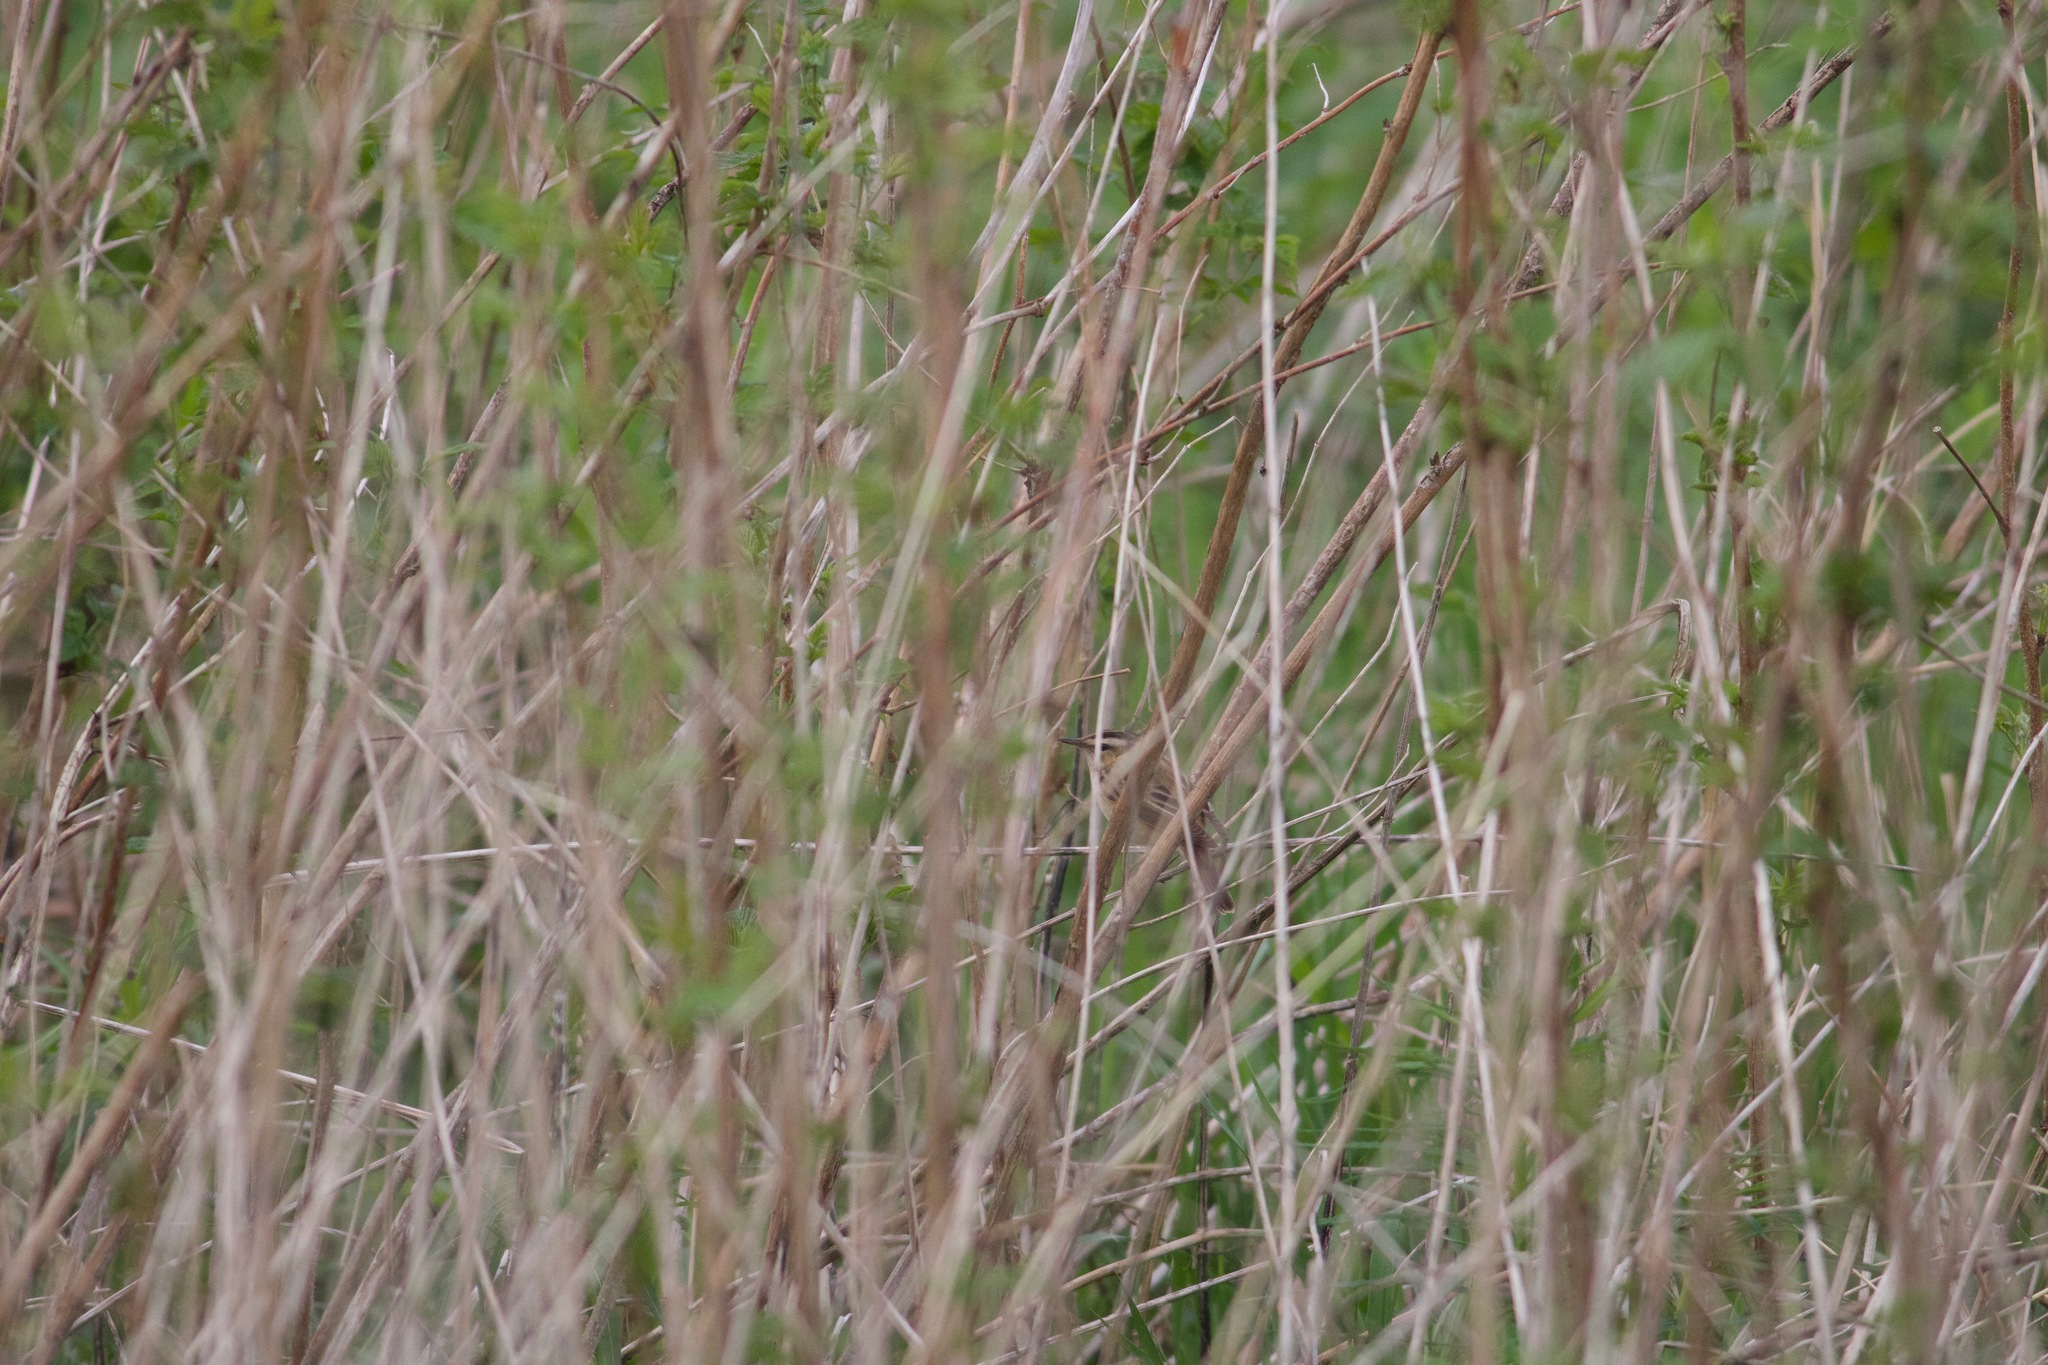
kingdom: Animalia
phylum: Chordata
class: Aves
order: Passeriformes
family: Acrocephalidae
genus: Acrocephalus
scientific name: Acrocephalus schoenobaenus
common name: Sedge warbler
